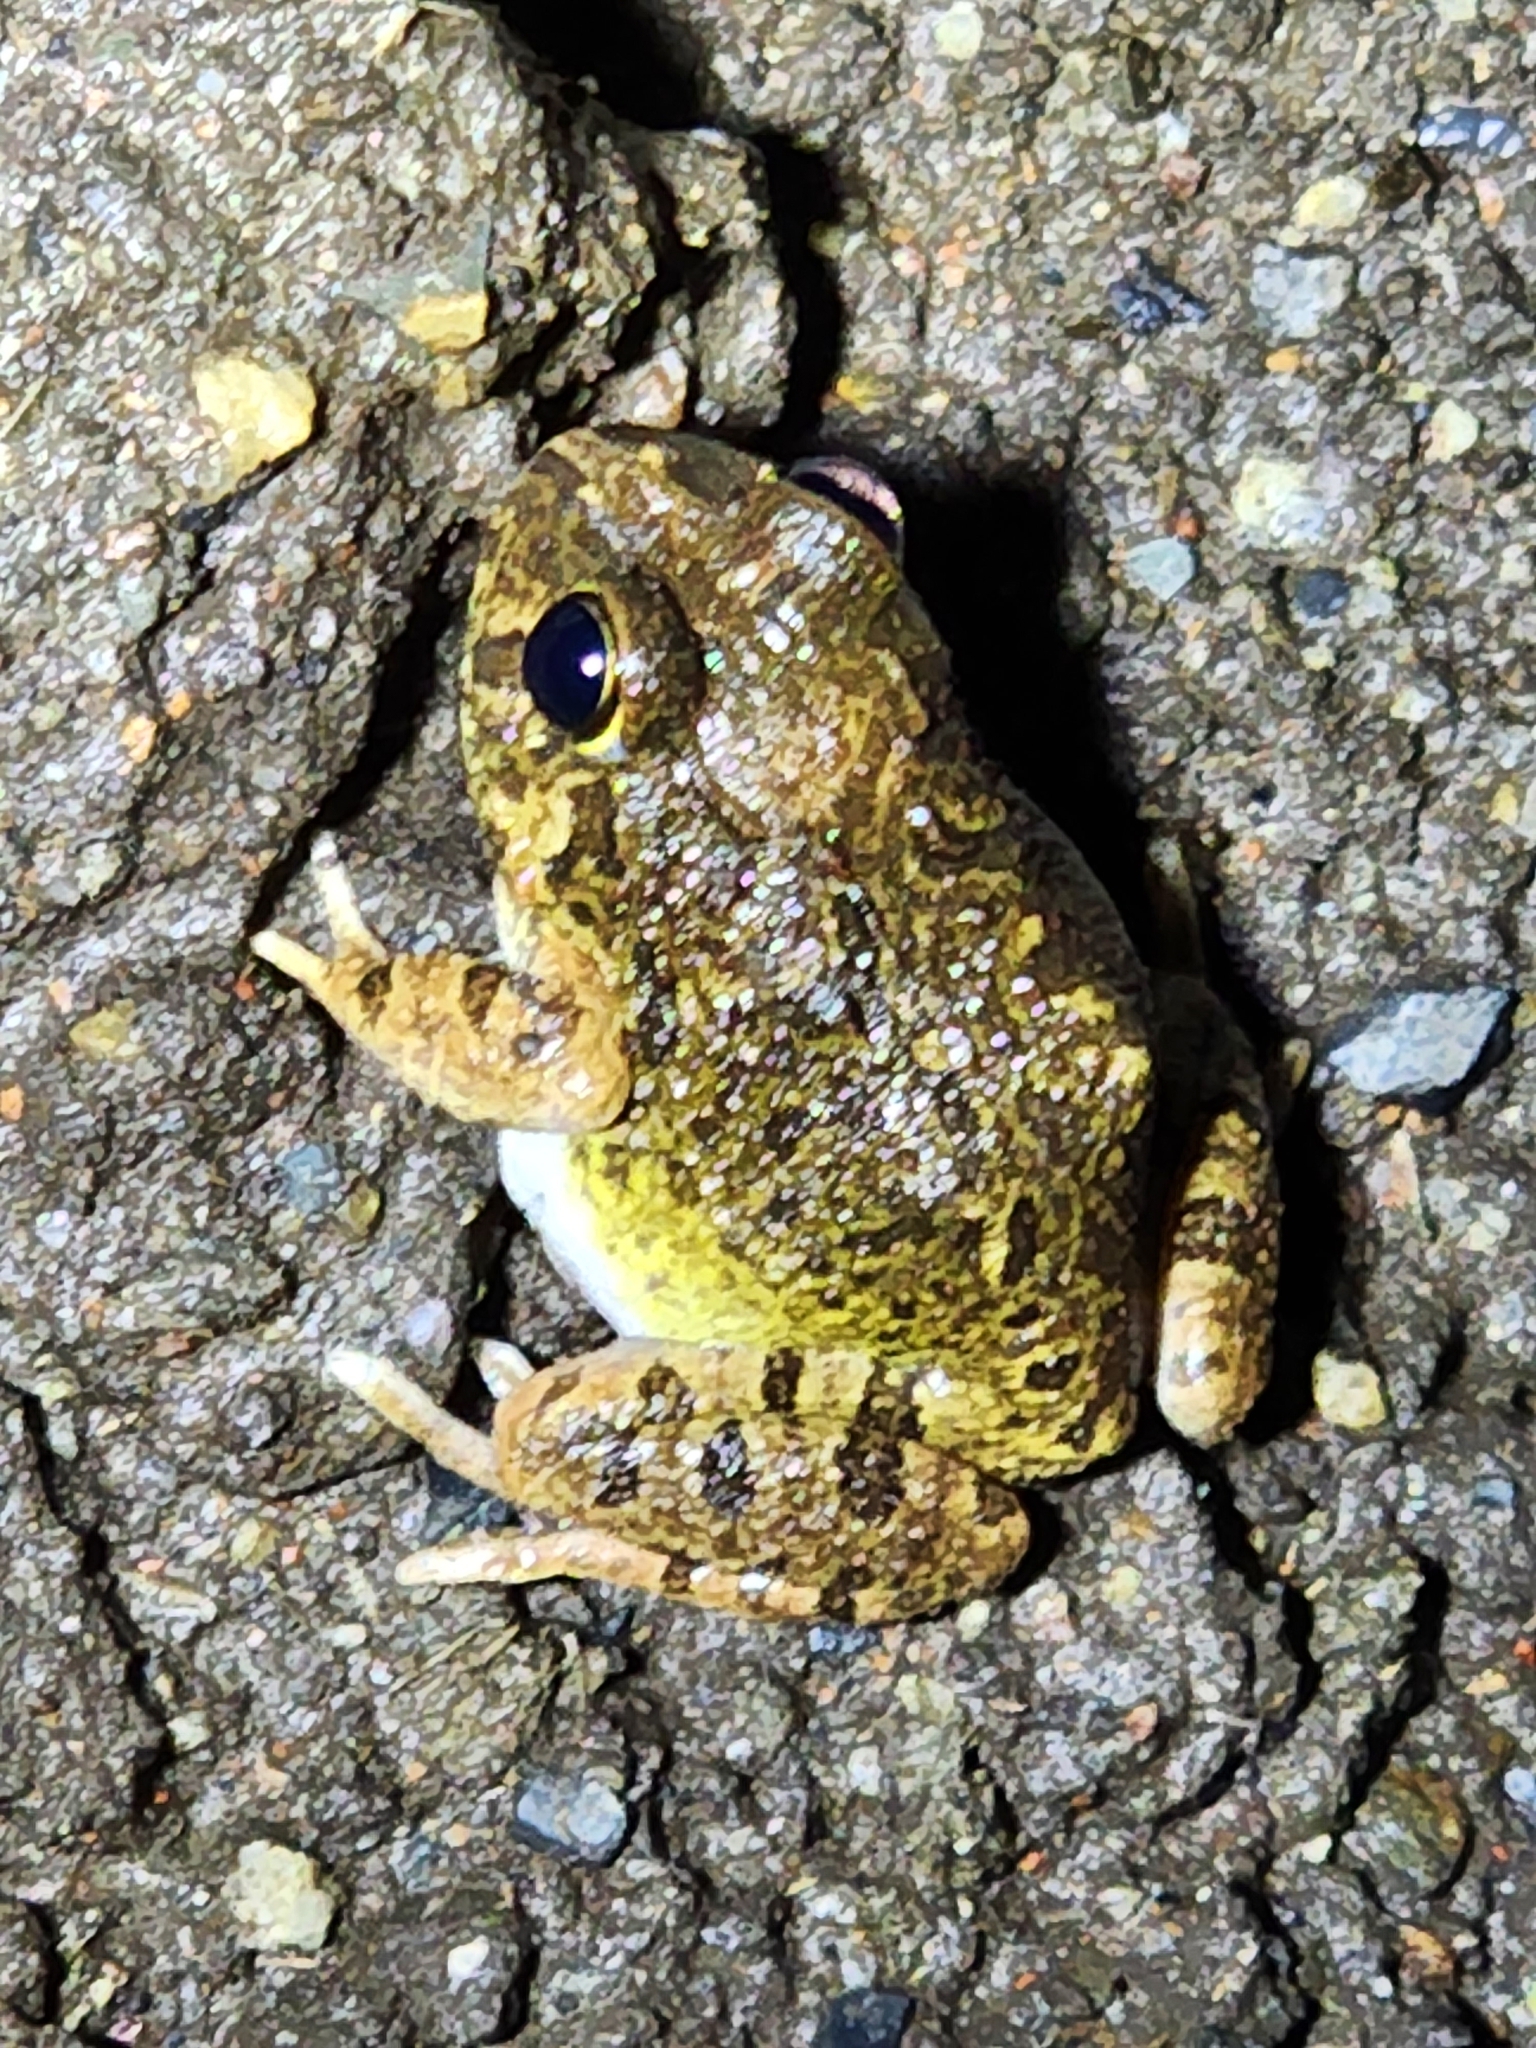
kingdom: Animalia
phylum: Chordata
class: Amphibia
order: Anura
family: Limnodynastidae
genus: Platyplectrum
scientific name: Platyplectrum ornatum
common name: Ornate burrowing frog
